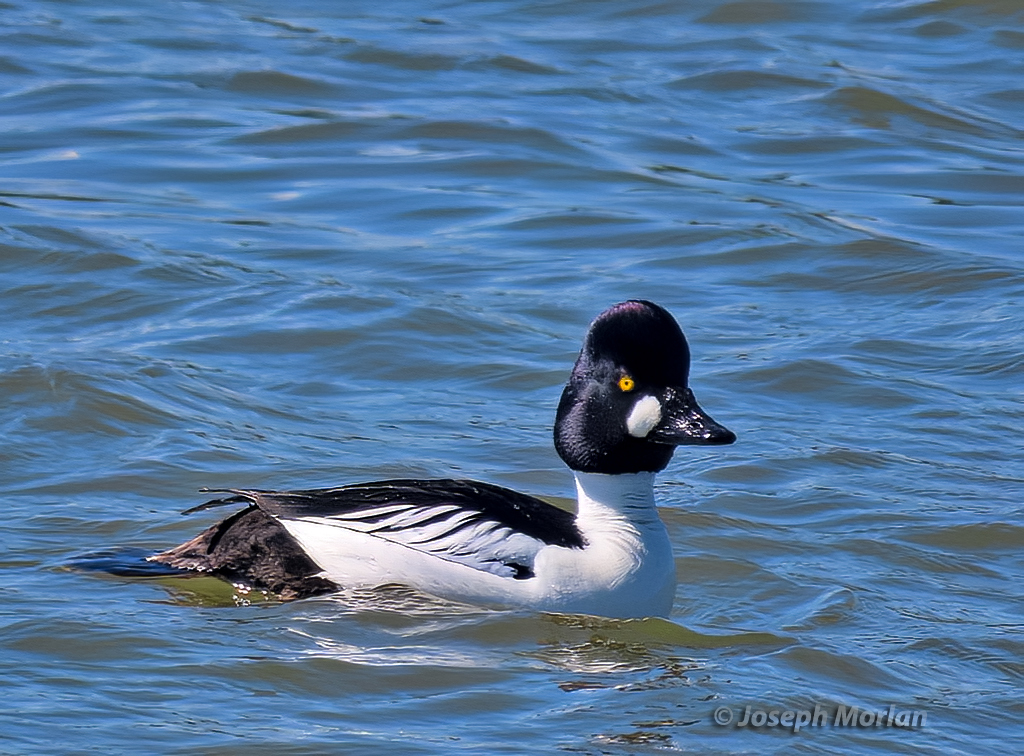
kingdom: Animalia
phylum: Chordata
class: Aves
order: Anseriformes
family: Anatidae
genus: Bucephala
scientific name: Bucephala clangula
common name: Common goldeneye
